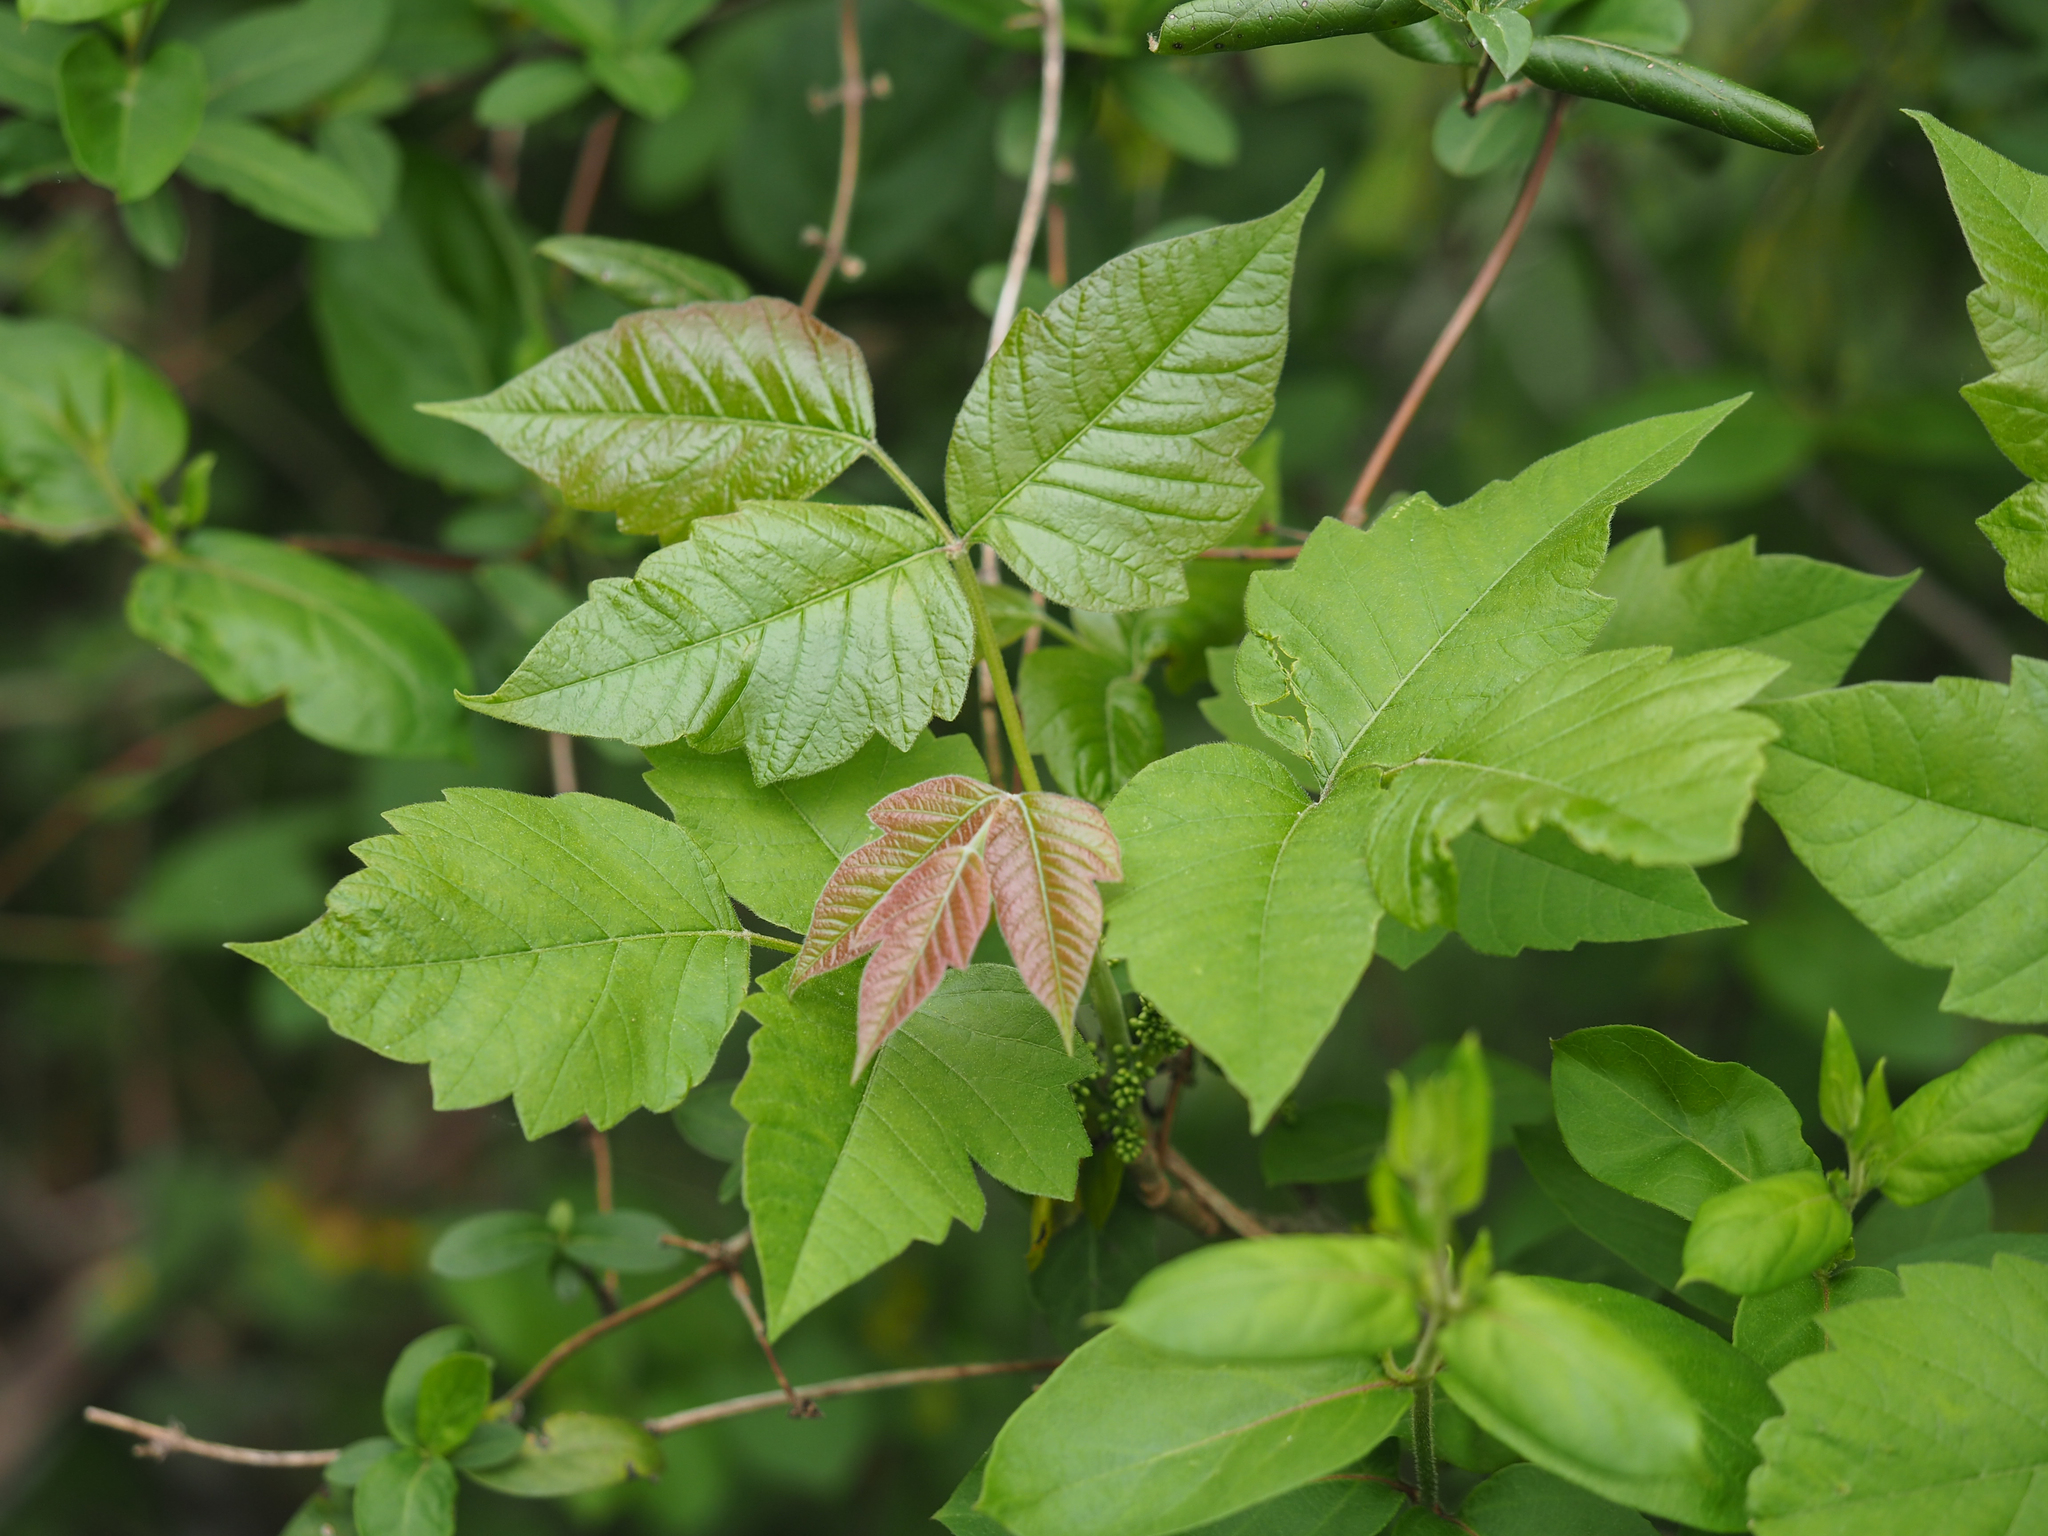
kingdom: Plantae
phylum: Tracheophyta
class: Magnoliopsida
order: Sapindales
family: Anacardiaceae
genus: Toxicodendron
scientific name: Toxicodendron radicans
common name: Poison ivy
